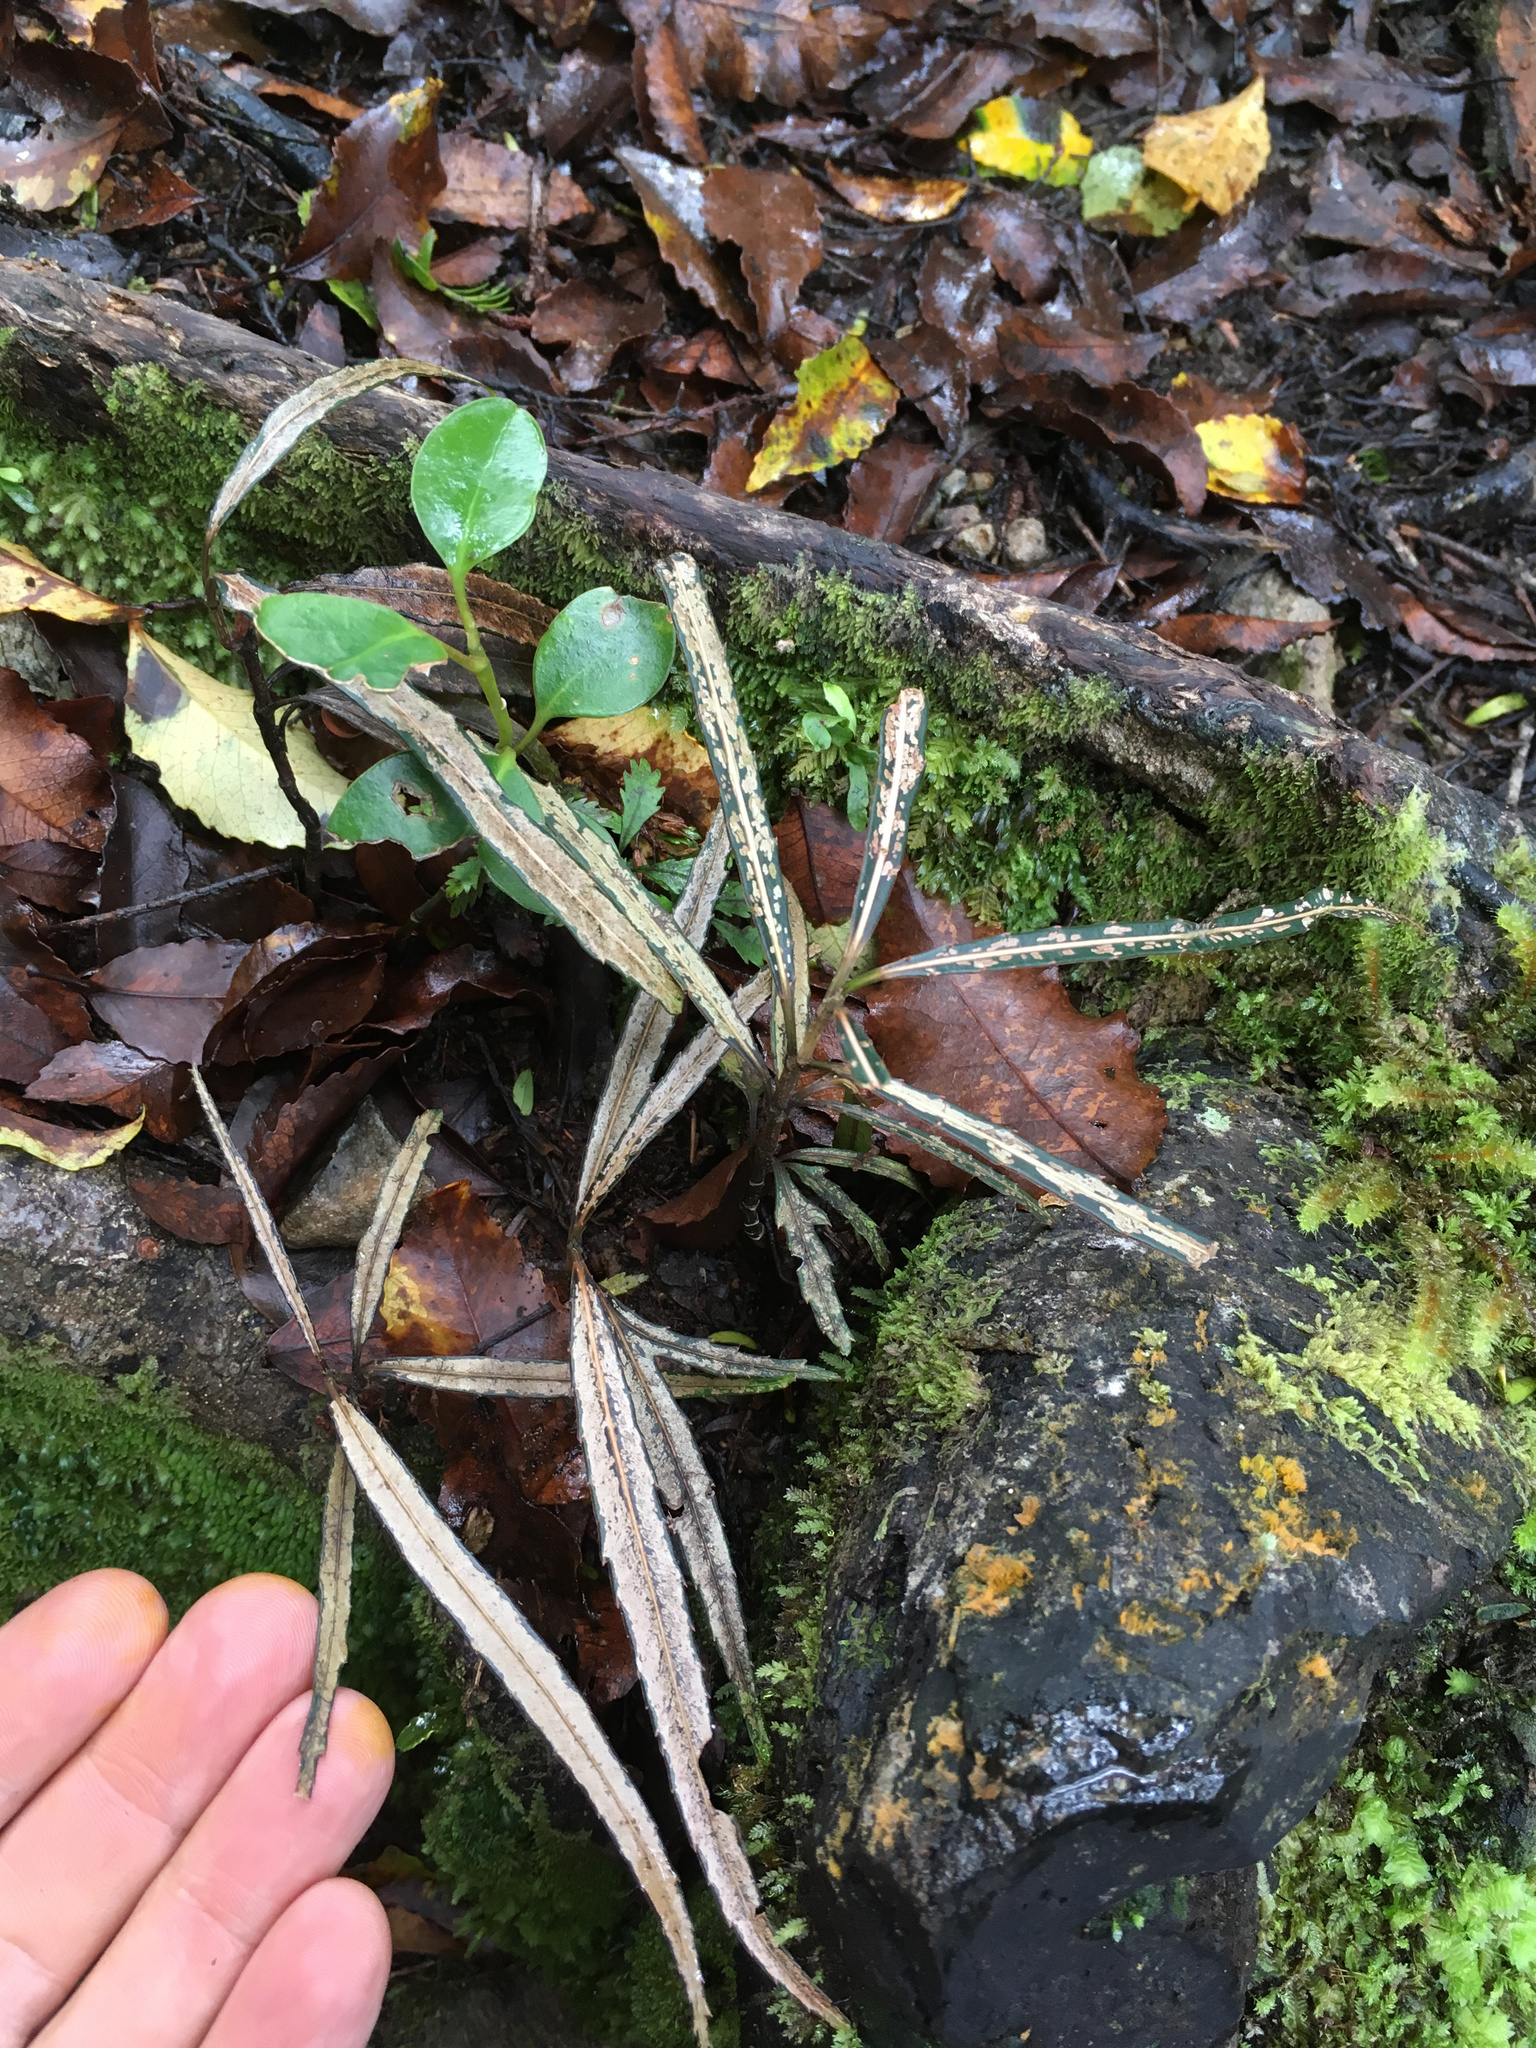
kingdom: Plantae
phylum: Tracheophyta
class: Magnoliopsida
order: Apiales
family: Araliaceae
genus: Pseudopanax
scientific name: Pseudopanax crassifolius
